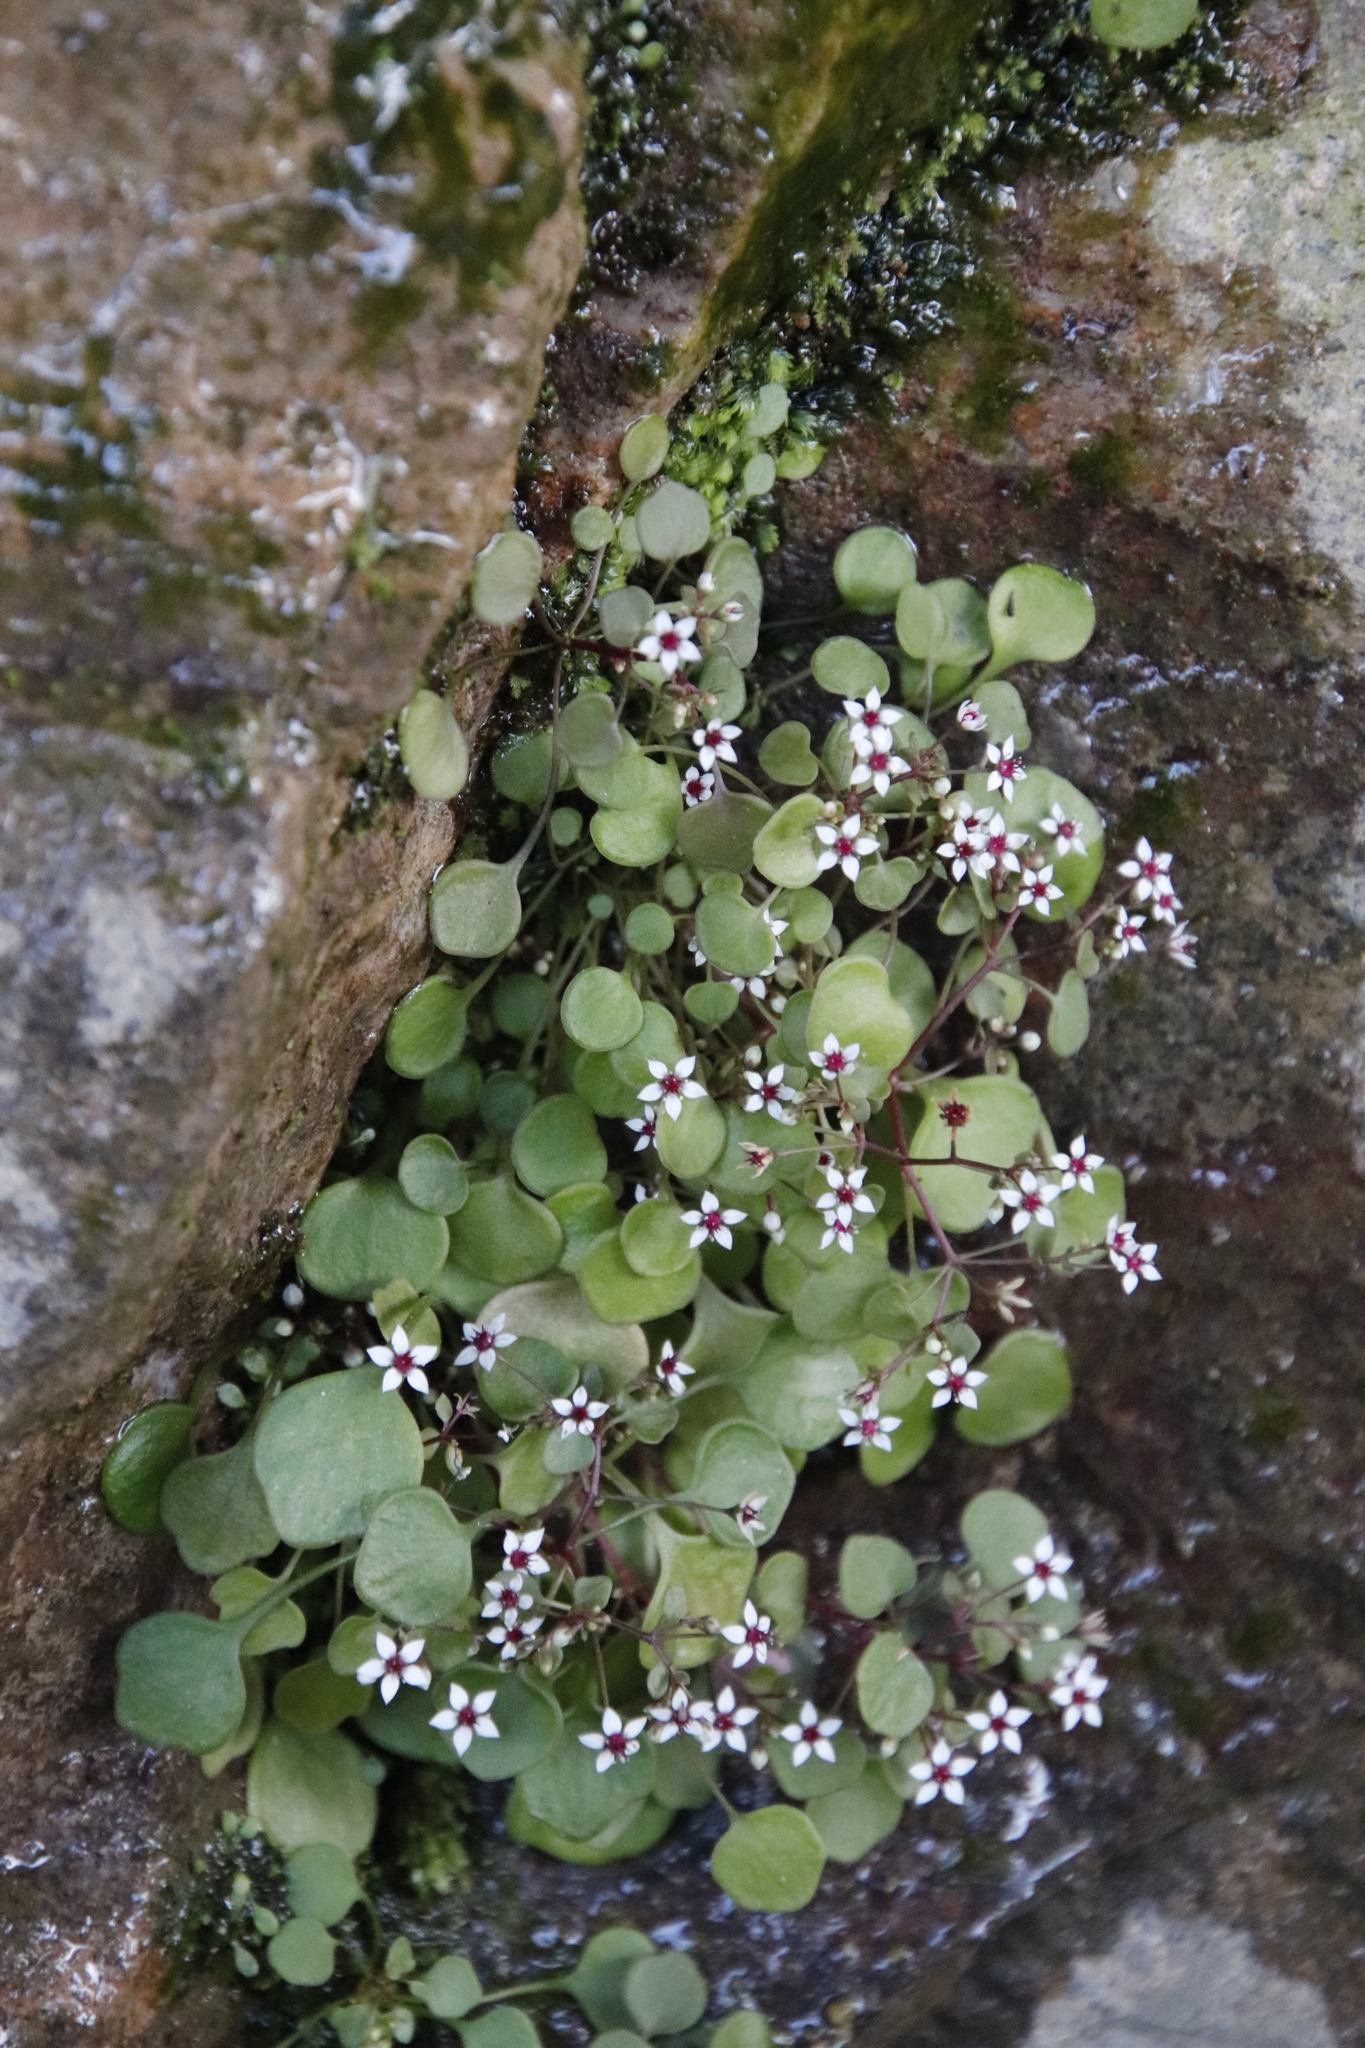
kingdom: Plantae
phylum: Tracheophyta
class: Magnoliopsida
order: Saxifragales
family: Crassulaceae
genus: Crassula
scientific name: Crassula dentata
